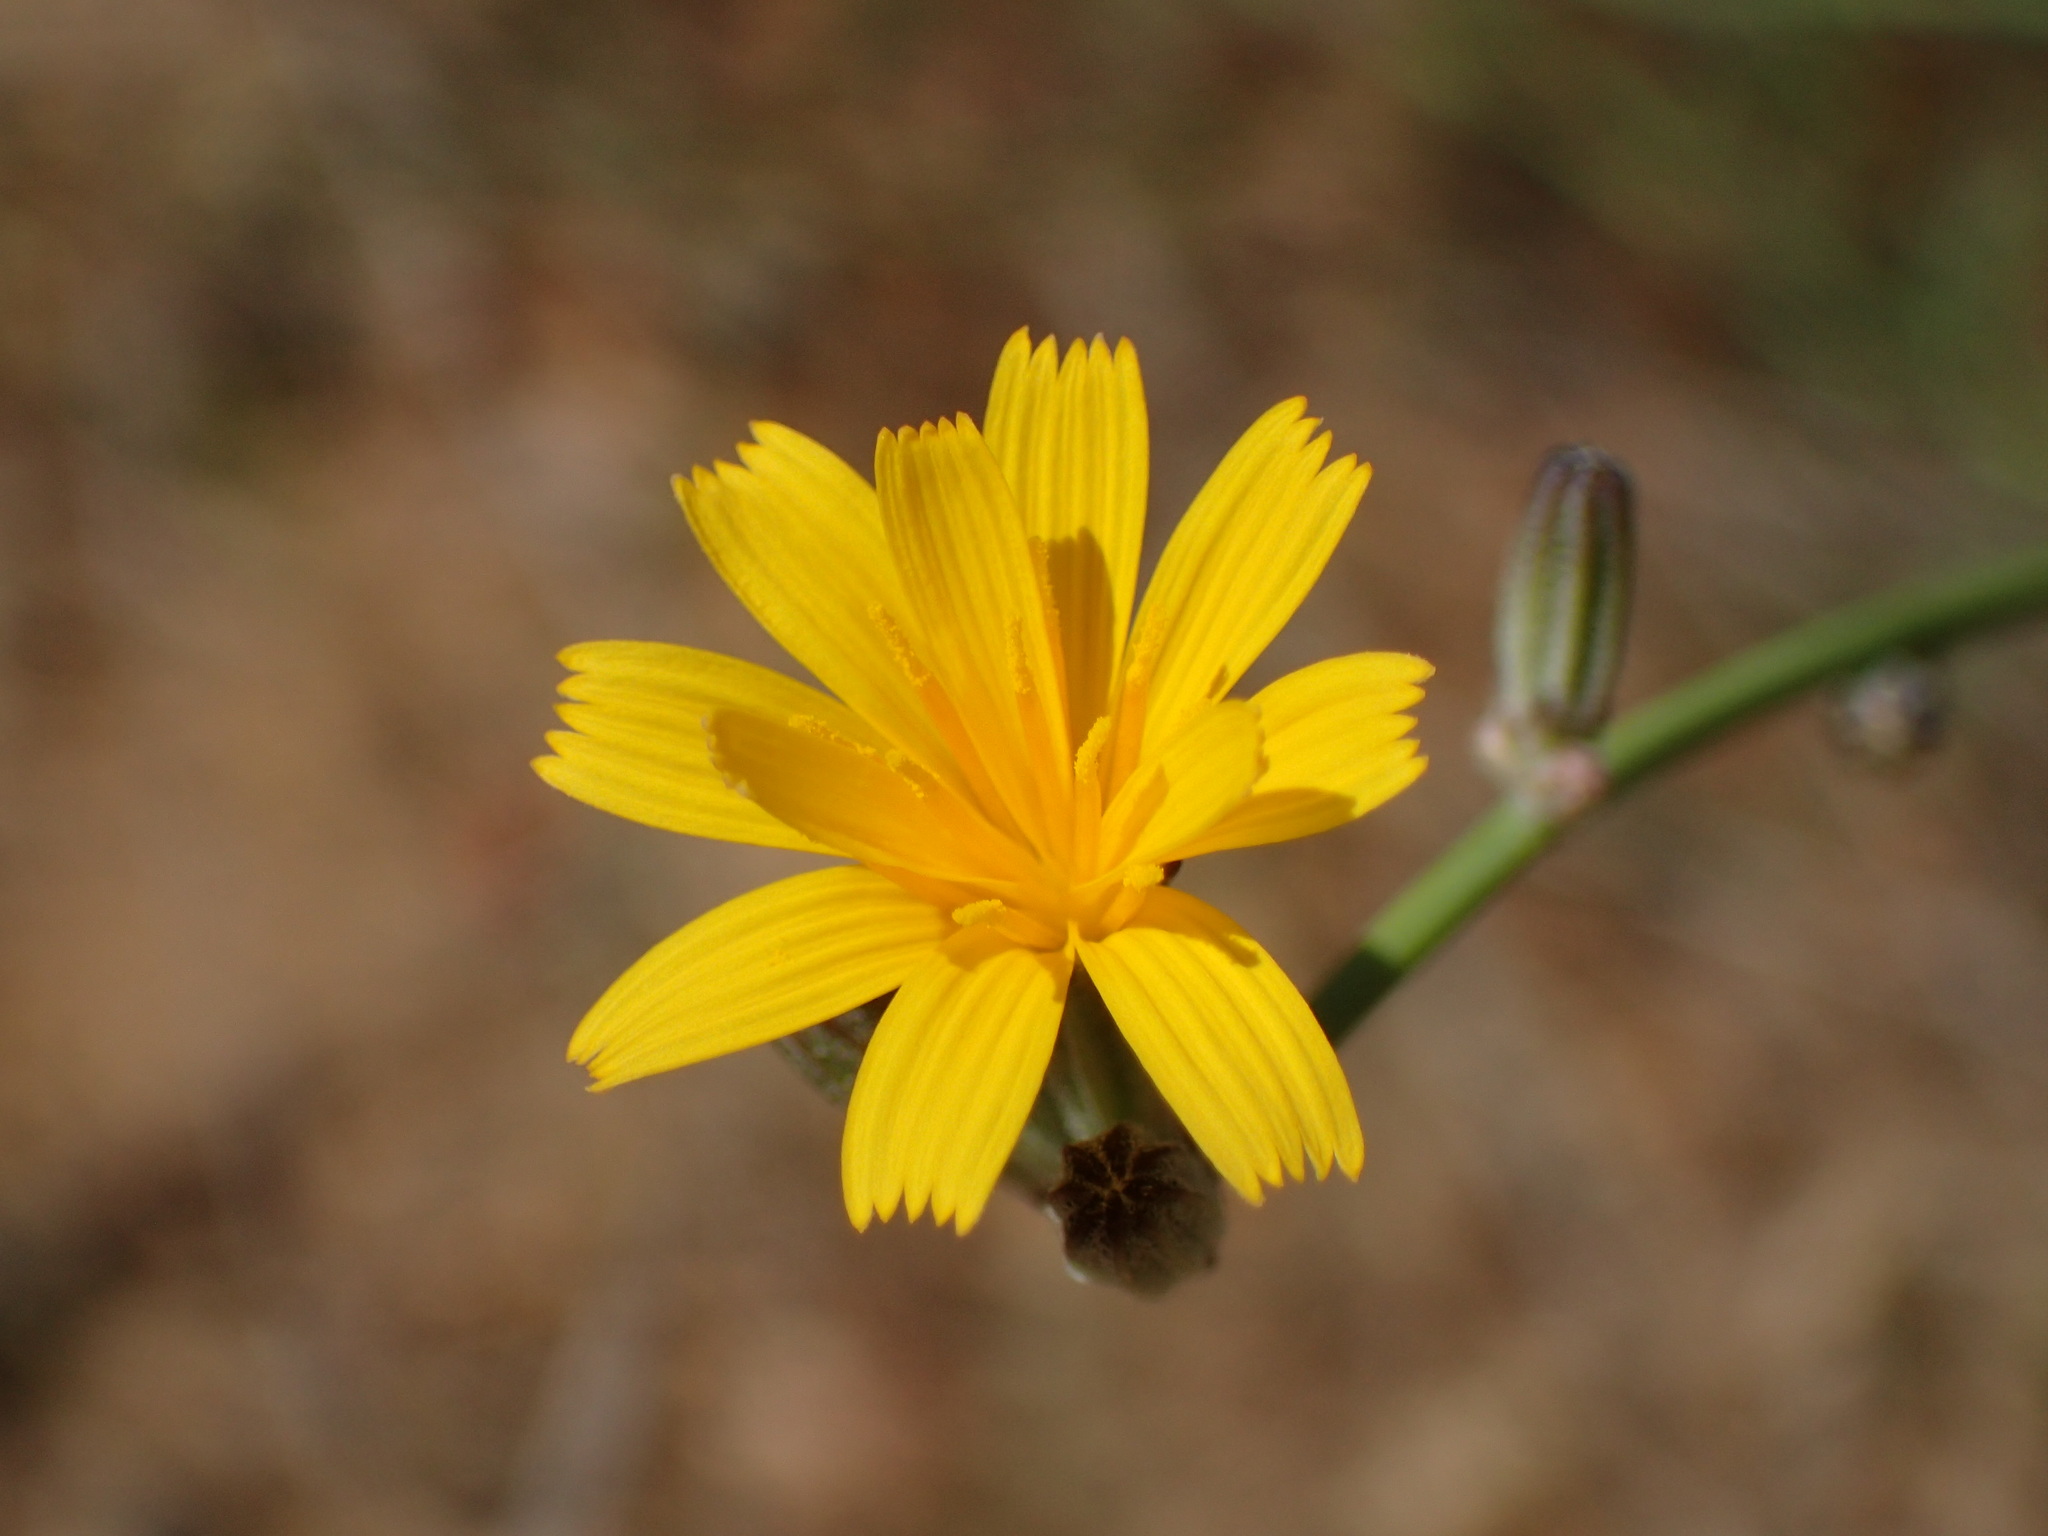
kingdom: Plantae
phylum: Tracheophyta
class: Magnoliopsida
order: Asterales
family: Asteraceae
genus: Chondrilla
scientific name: Chondrilla juncea
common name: Skeleton weed
